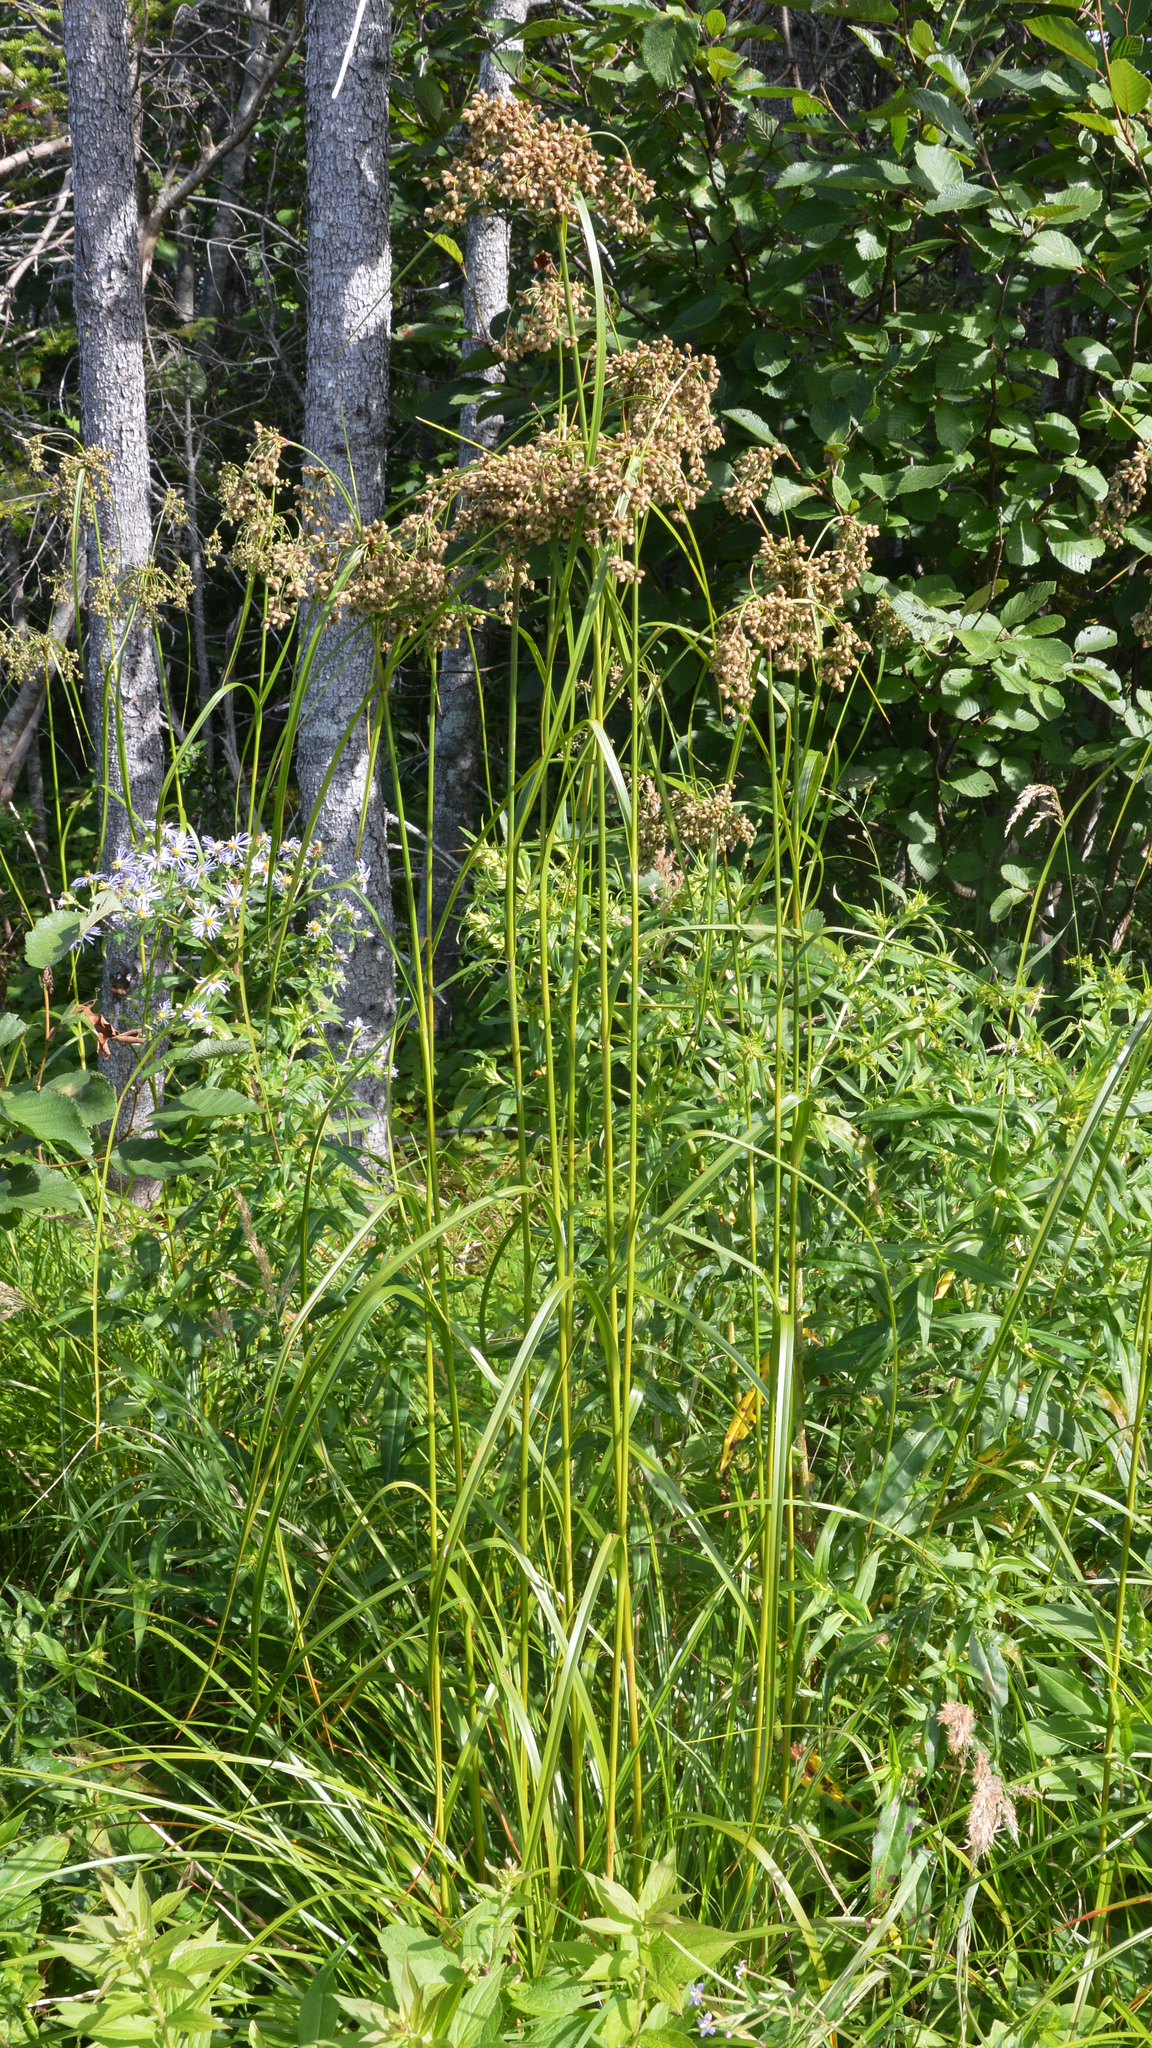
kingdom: Plantae
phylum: Tracheophyta
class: Liliopsida
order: Poales
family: Cyperaceae
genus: Scirpus
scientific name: Scirpus cyperinus
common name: Black-sheathed bulrush
